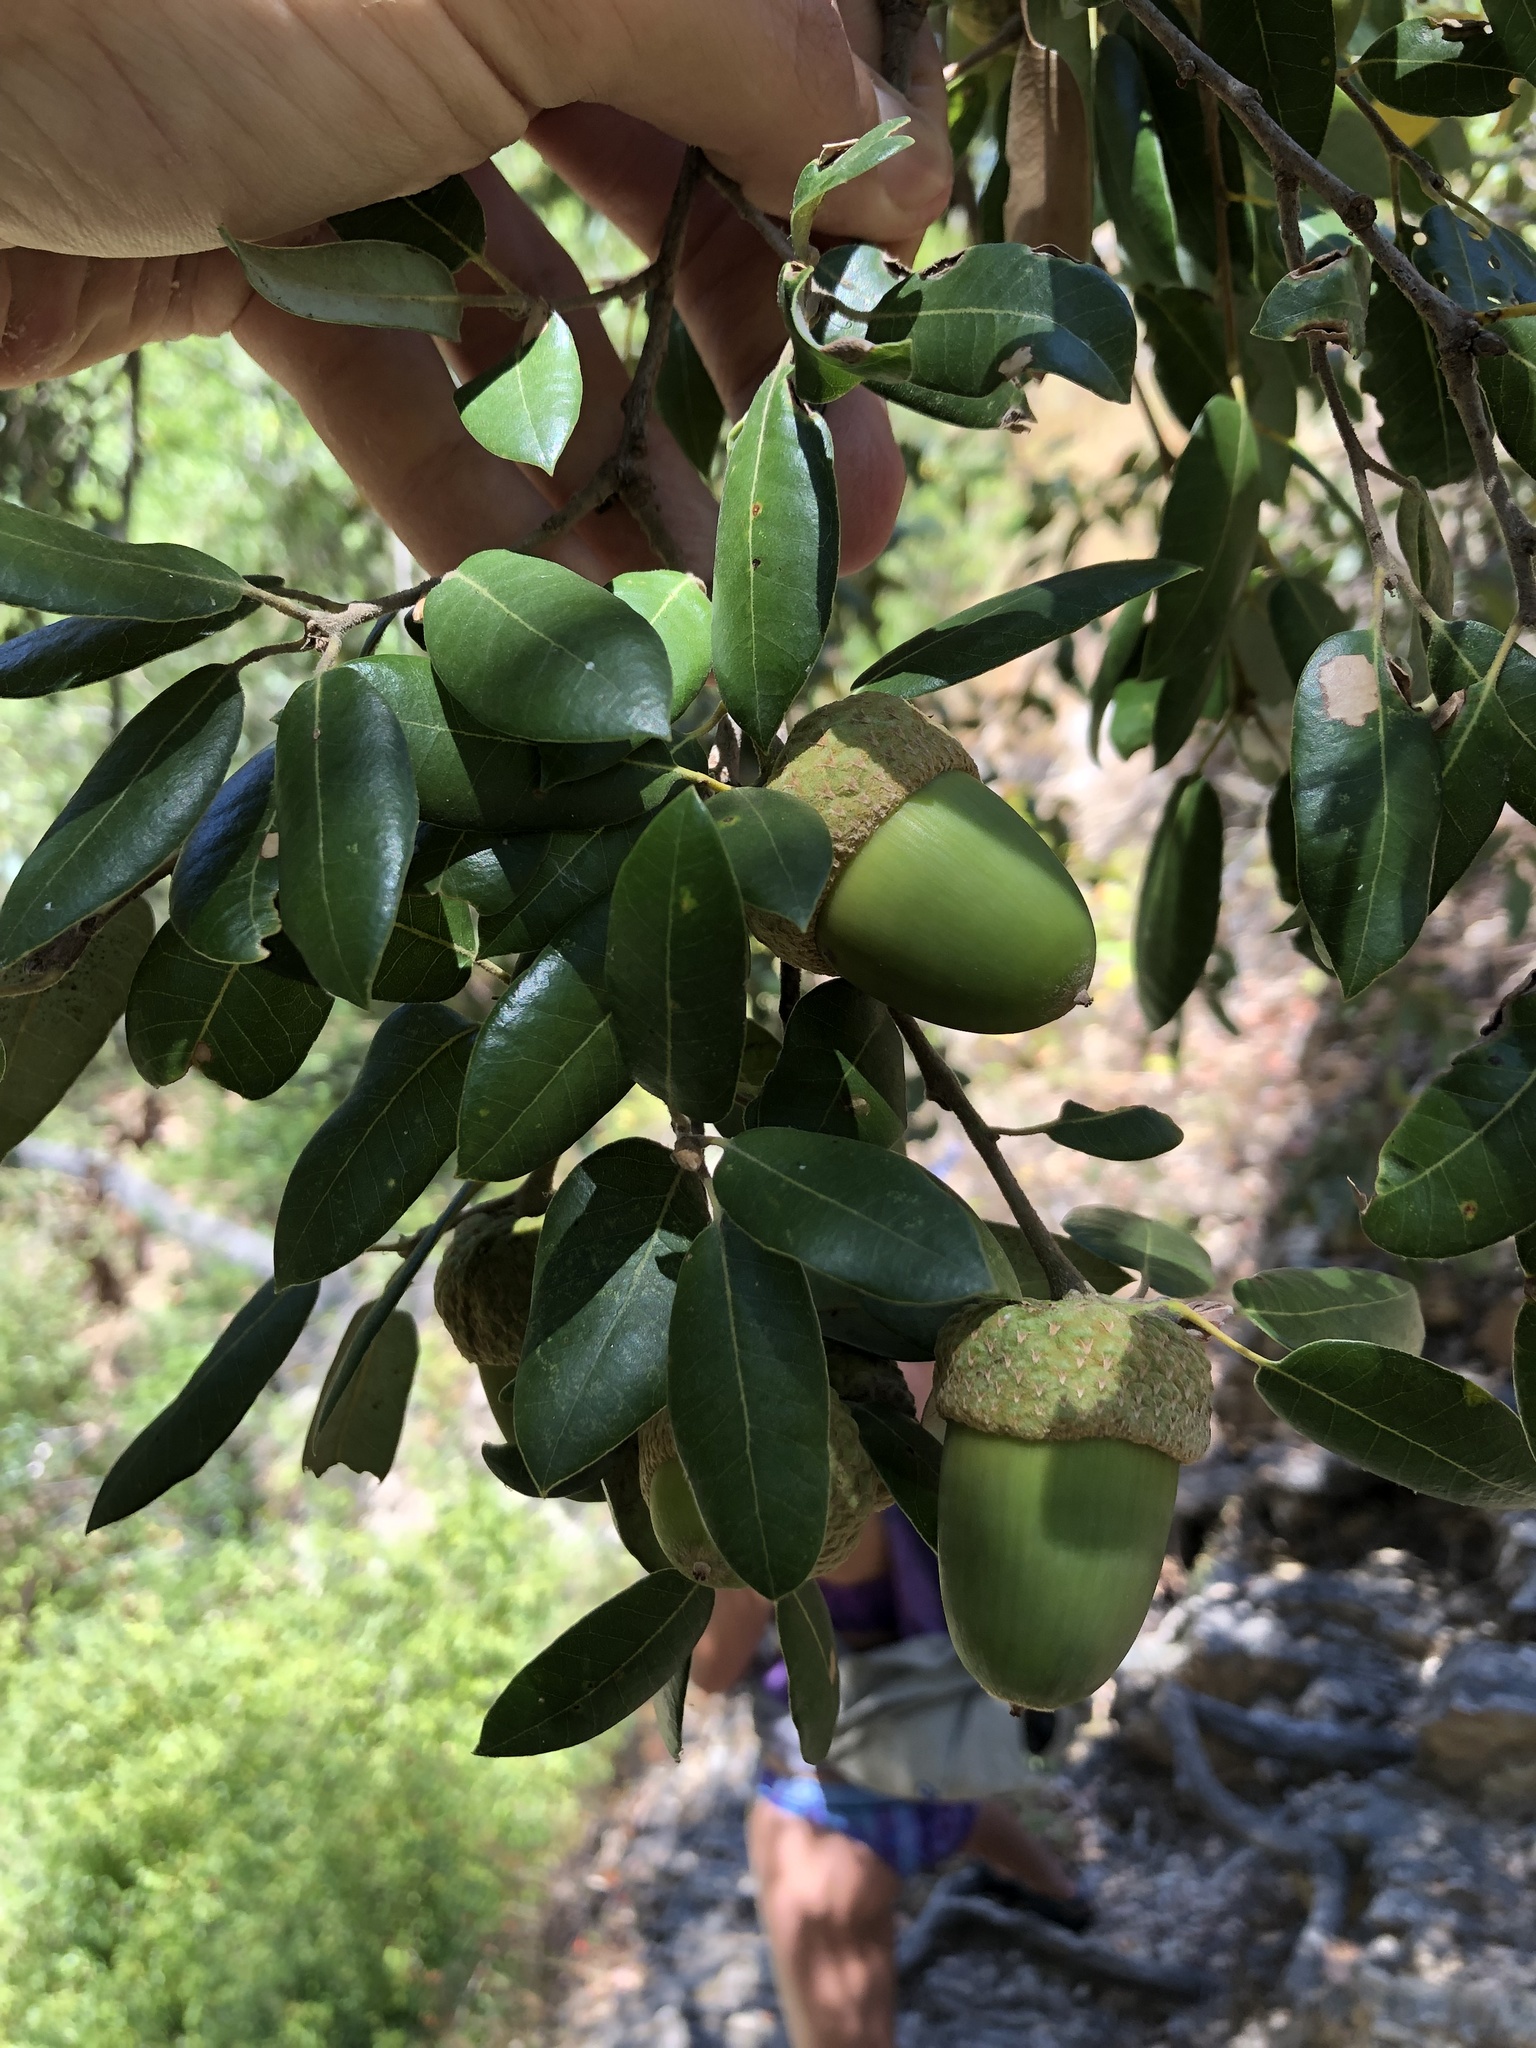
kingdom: Plantae
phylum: Tracheophyta
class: Magnoliopsida
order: Fagales
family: Fagaceae
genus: Quercus
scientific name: Quercus chrysolepis
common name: Canyon live oak
